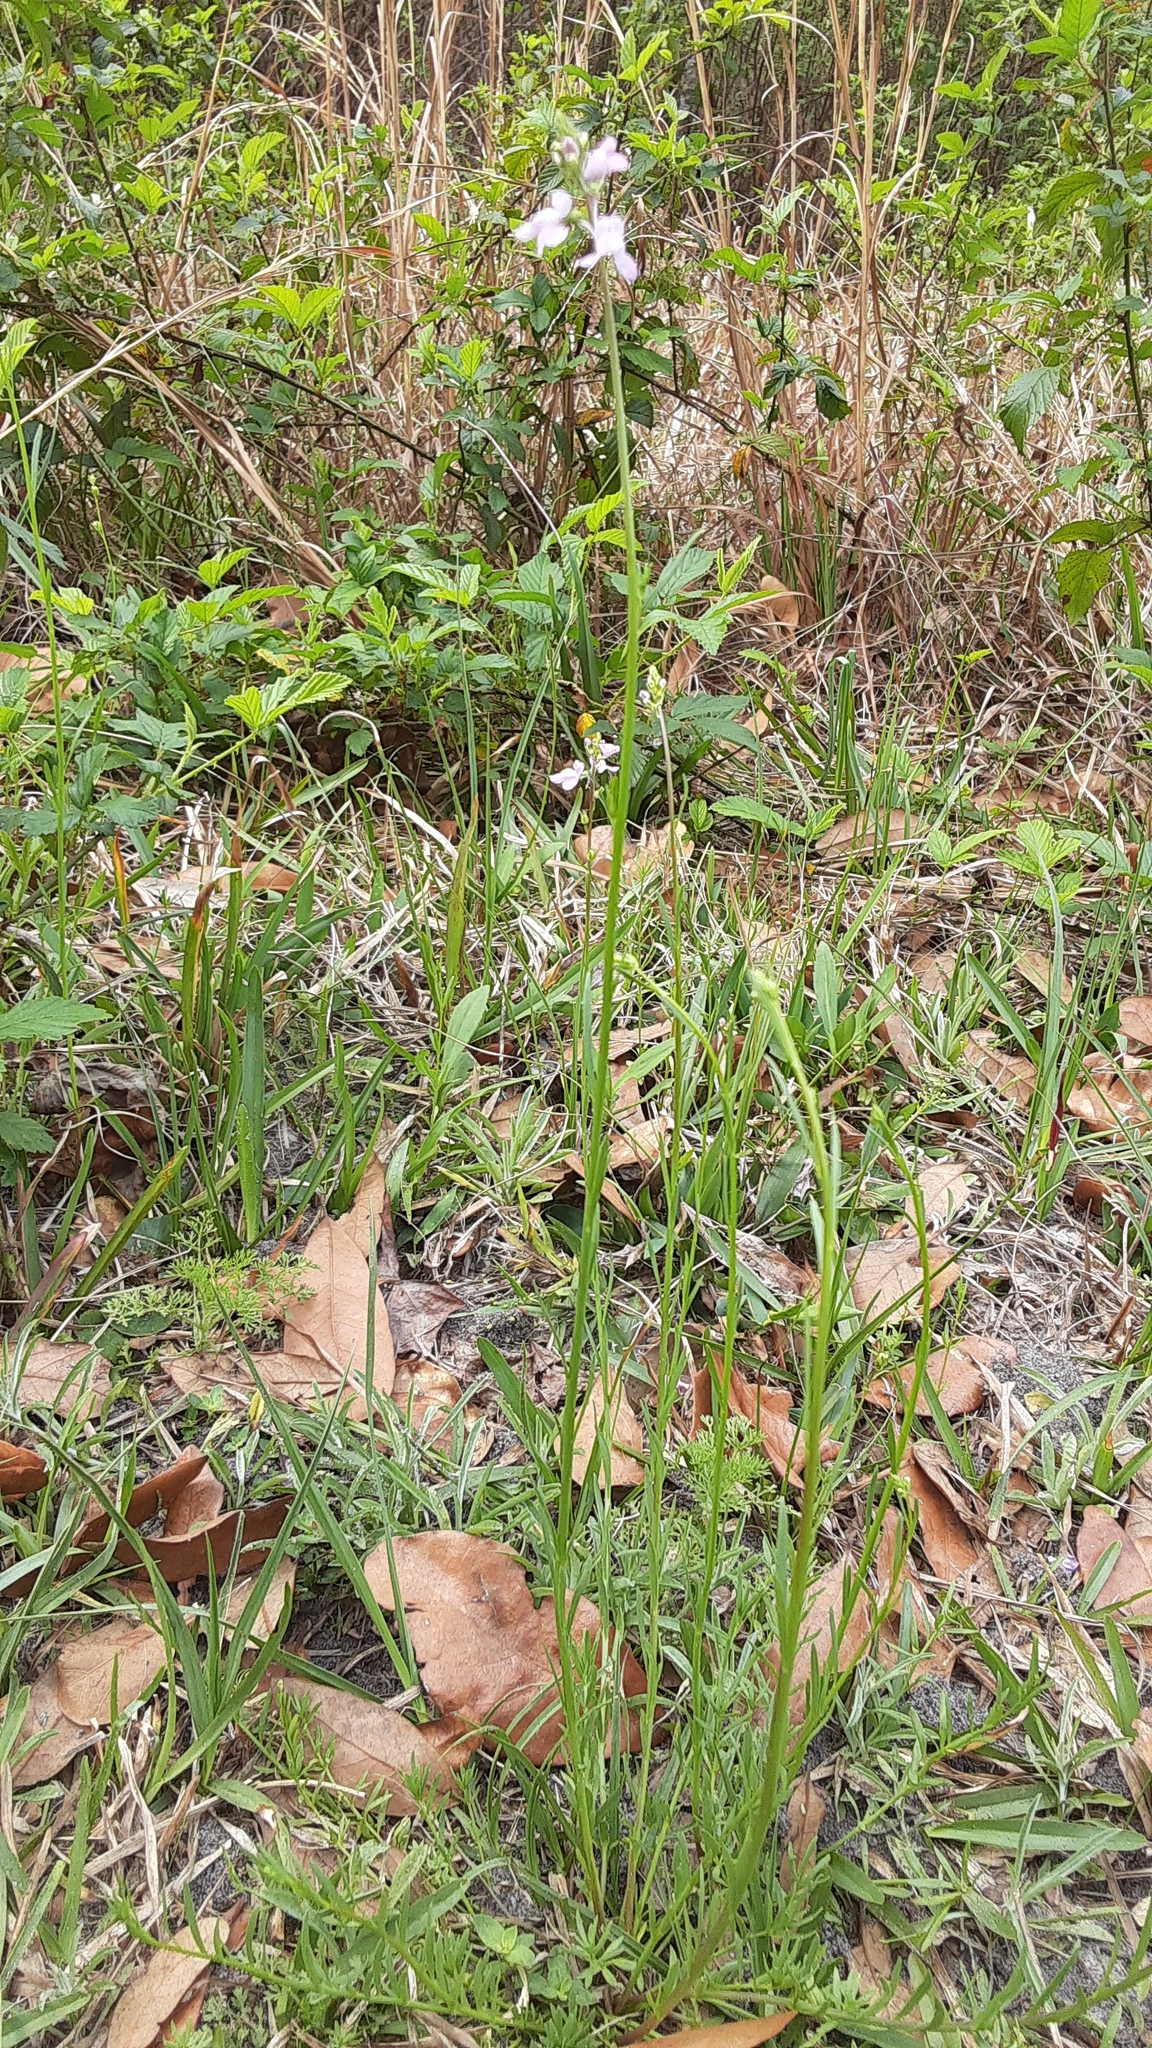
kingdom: Plantae
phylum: Tracheophyta
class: Magnoliopsida
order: Lamiales
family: Plantaginaceae
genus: Nuttallanthus
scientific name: Nuttallanthus canadensis
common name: Blue toadflax
